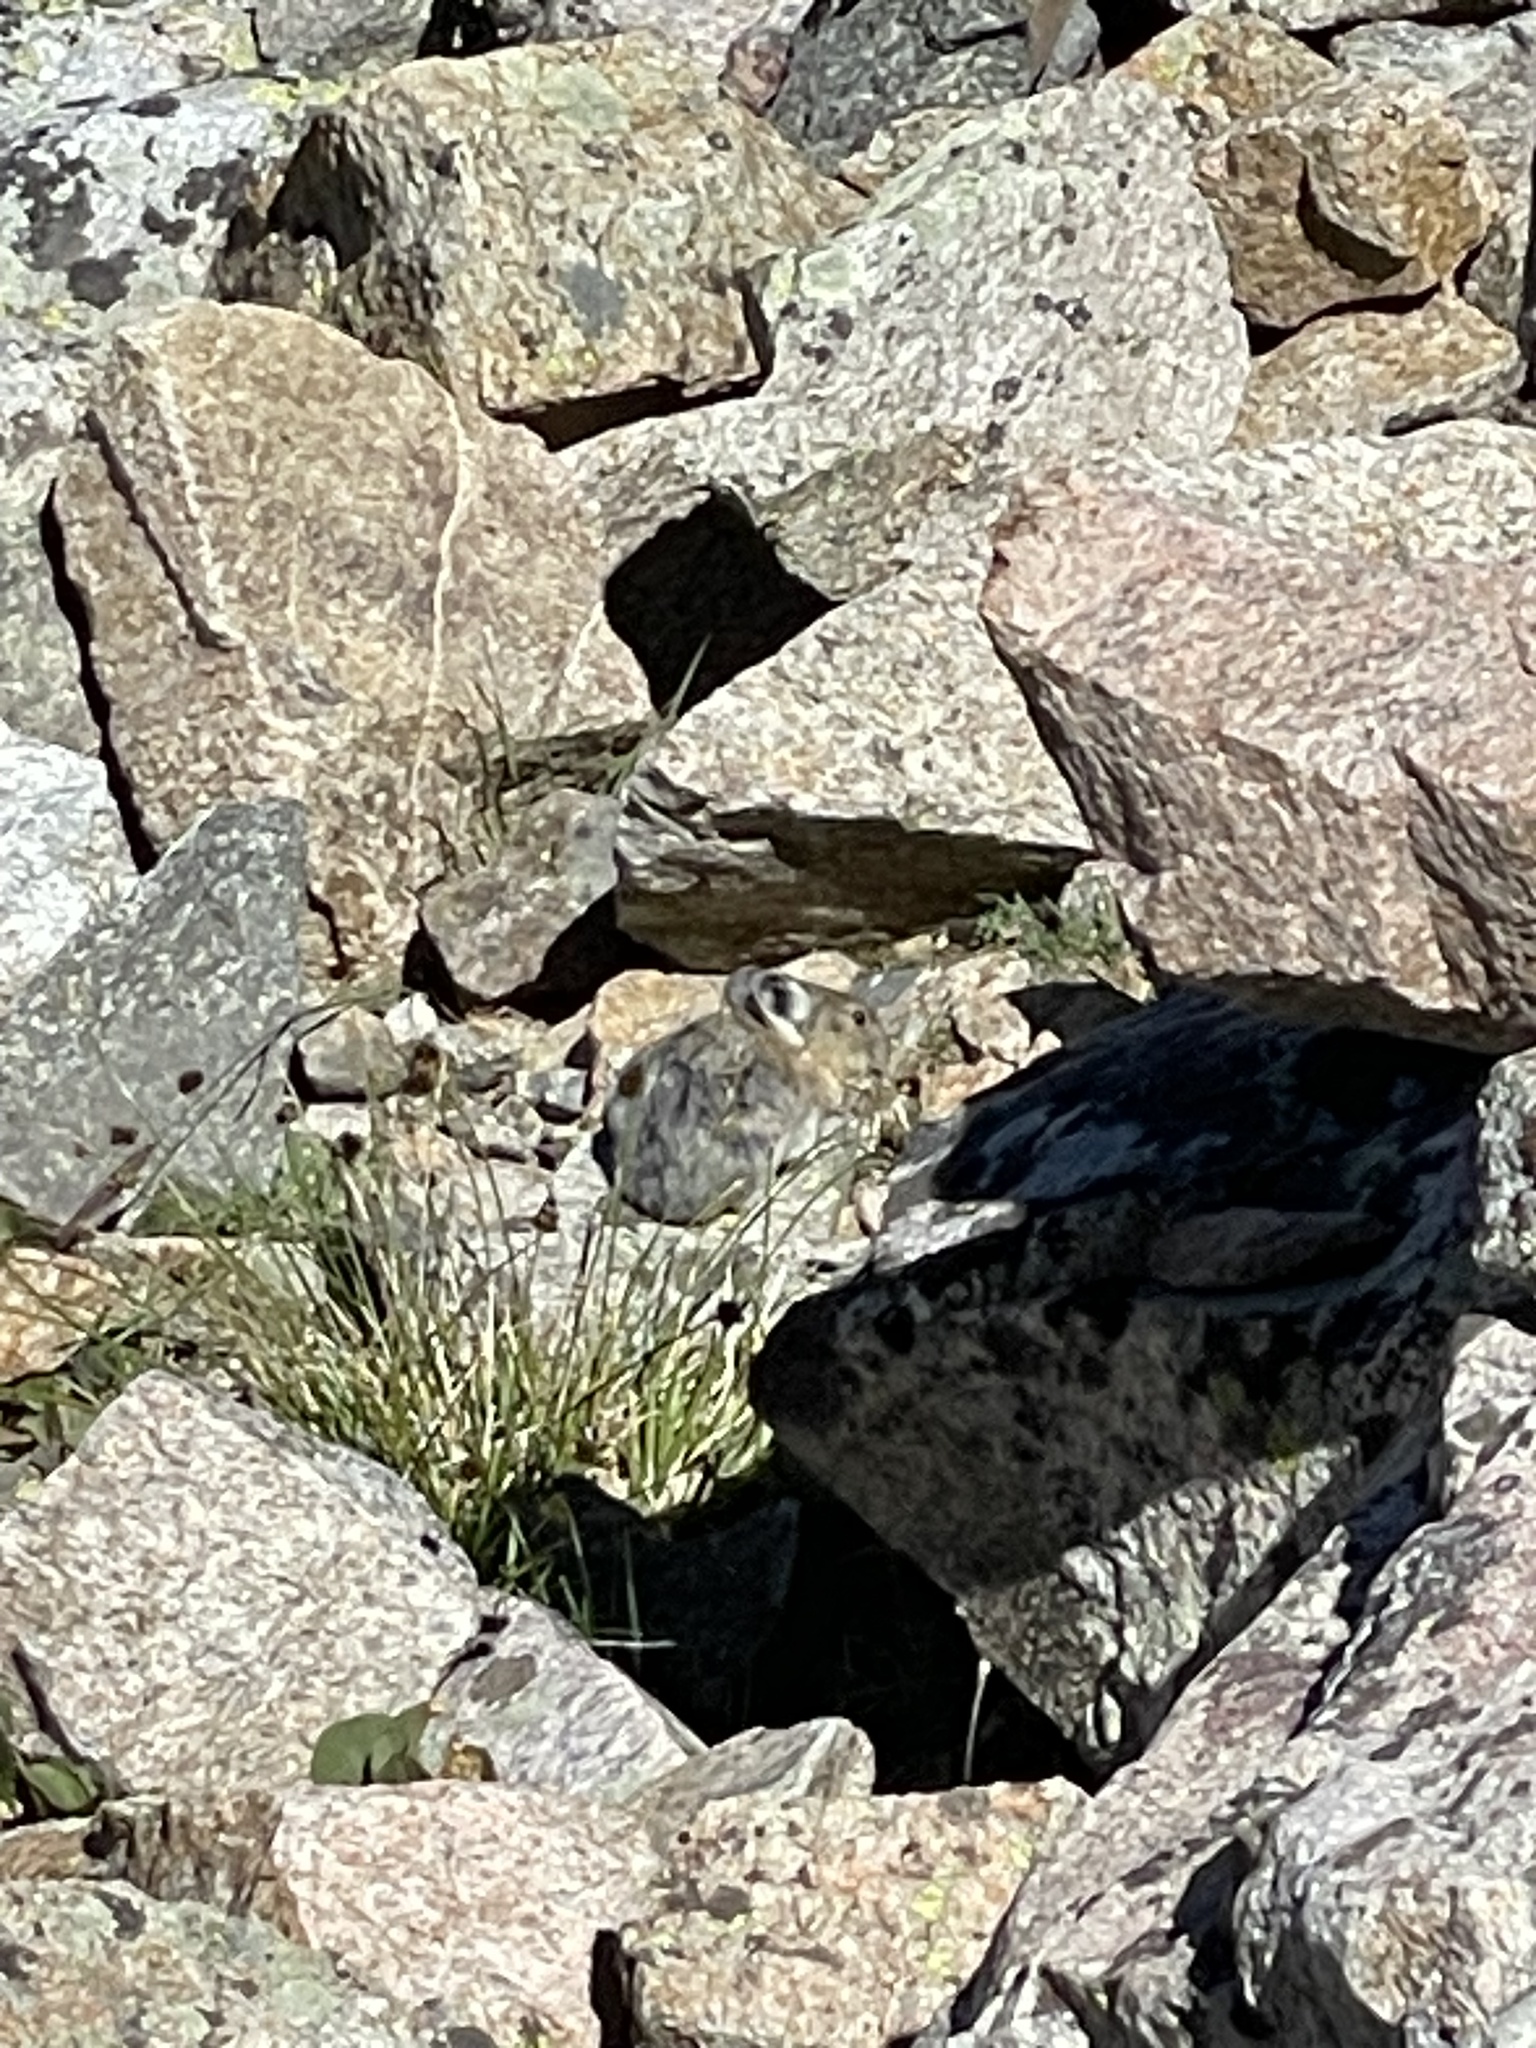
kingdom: Animalia
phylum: Chordata
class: Mammalia
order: Lagomorpha
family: Ochotonidae
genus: Ochotona
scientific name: Ochotona princeps
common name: American pika
